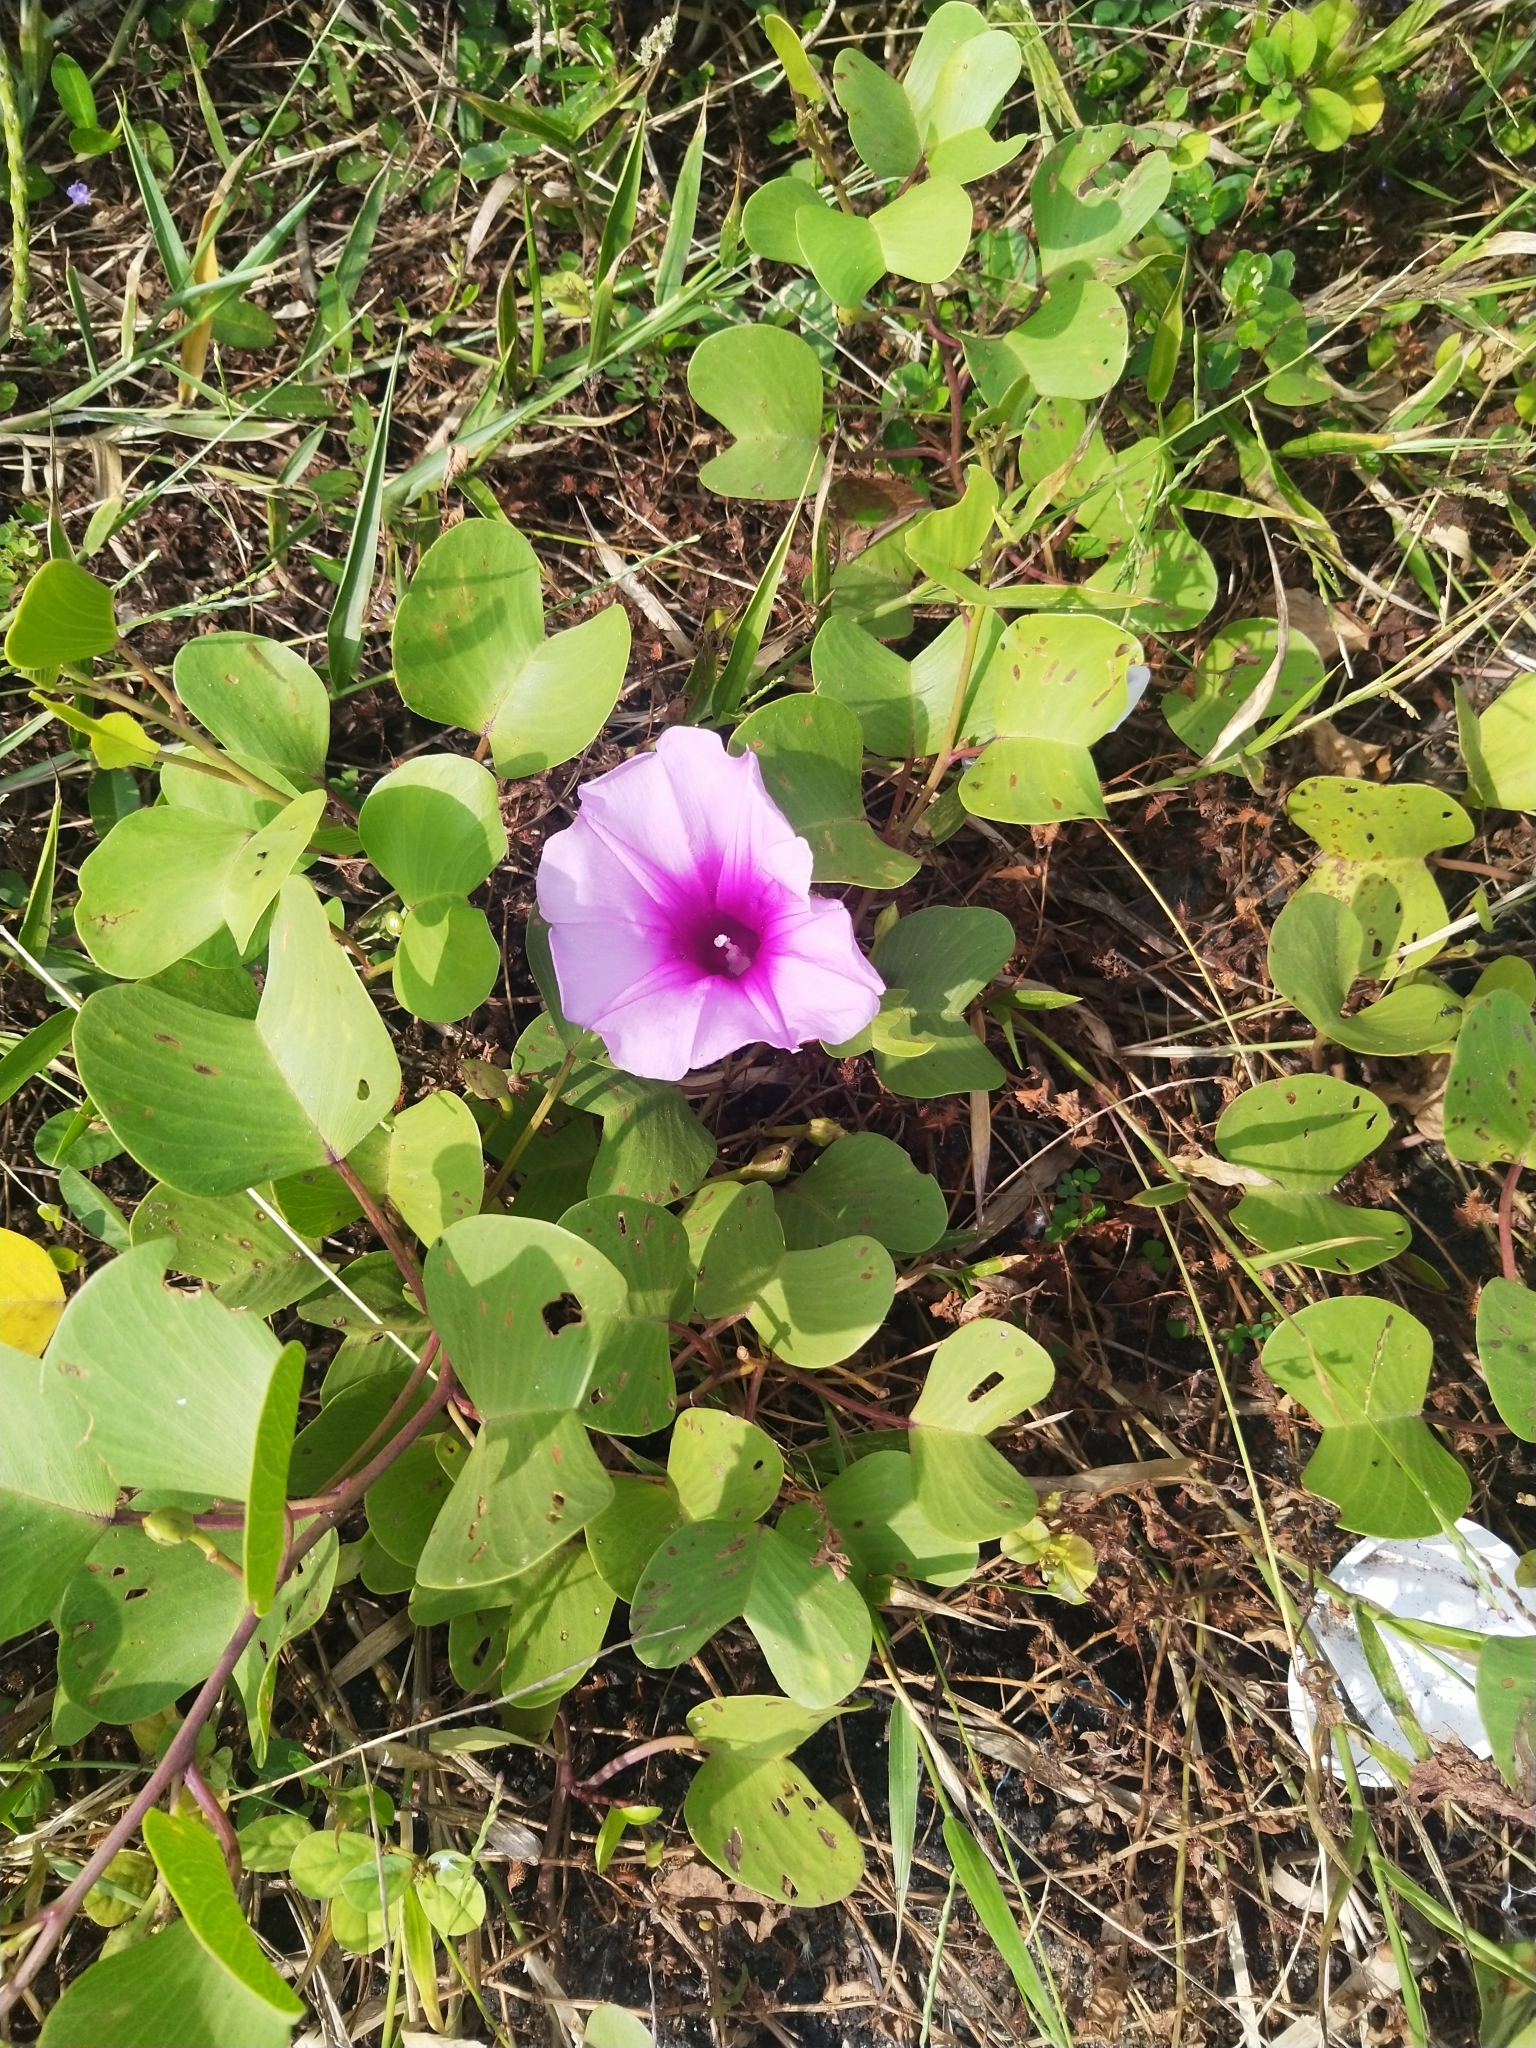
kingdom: Plantae
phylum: Tracheophyta
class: Magnoliopsida
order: Solanales
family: Convolvulaceae
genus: Ipomoea
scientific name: Ipomoea pes-caprae
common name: Beach morning glory
